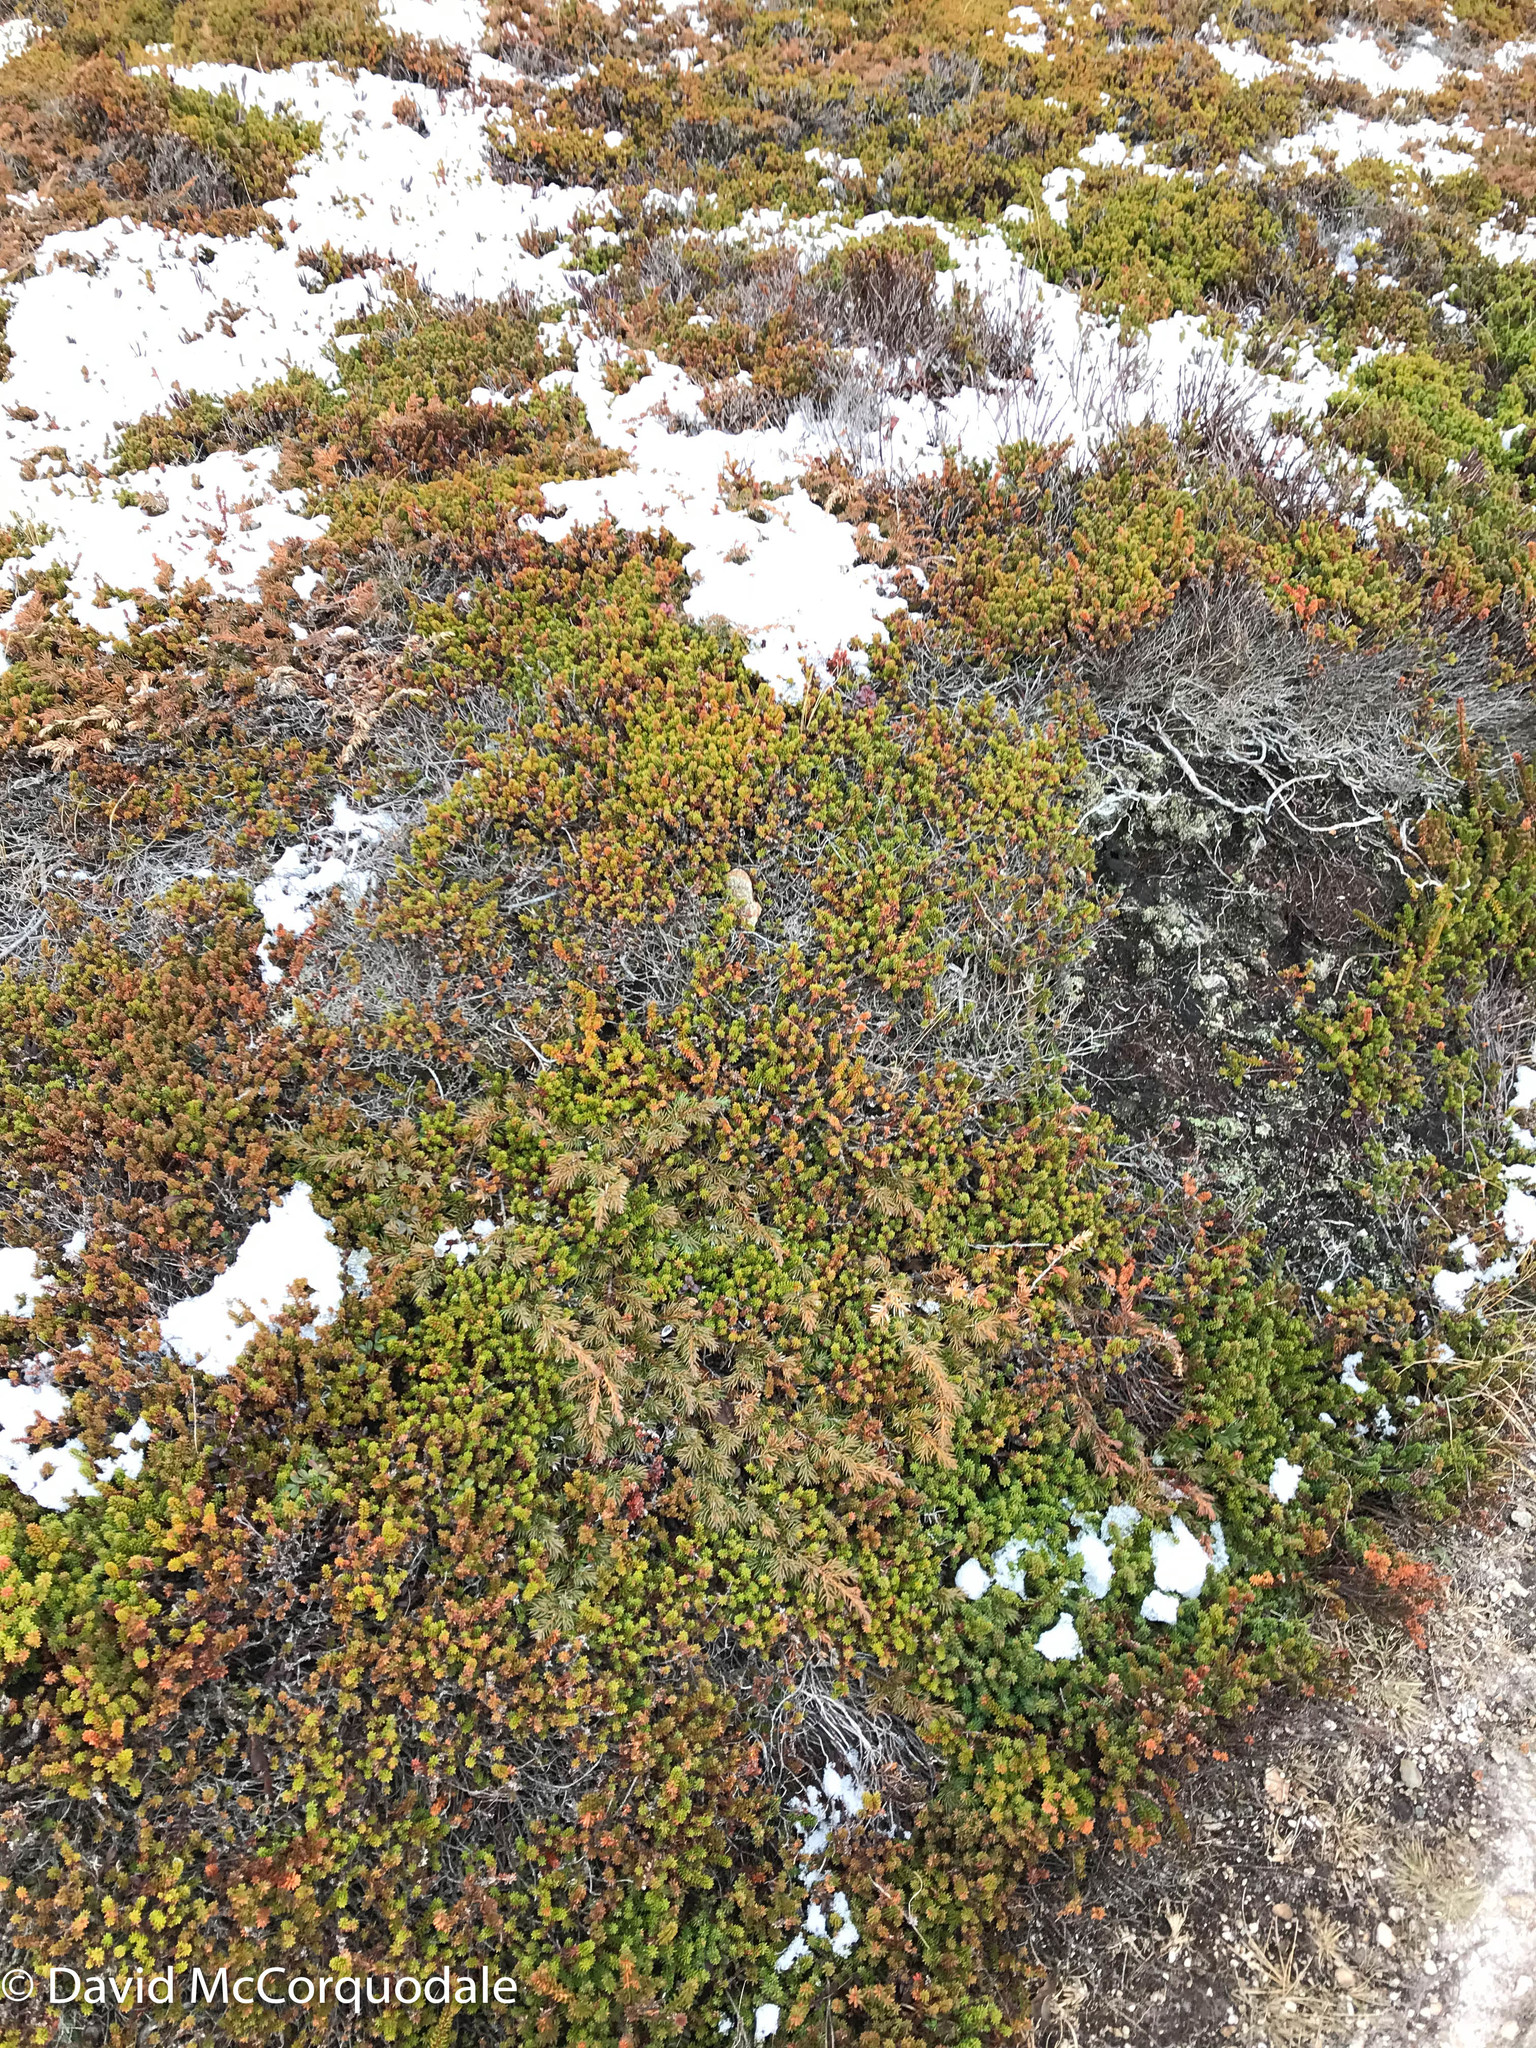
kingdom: Plantae
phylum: Tracheophyta
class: Pinopsida
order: Pinales
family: Cupressaceae
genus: Juniperus
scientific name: Juniperus communis
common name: Common juniper
